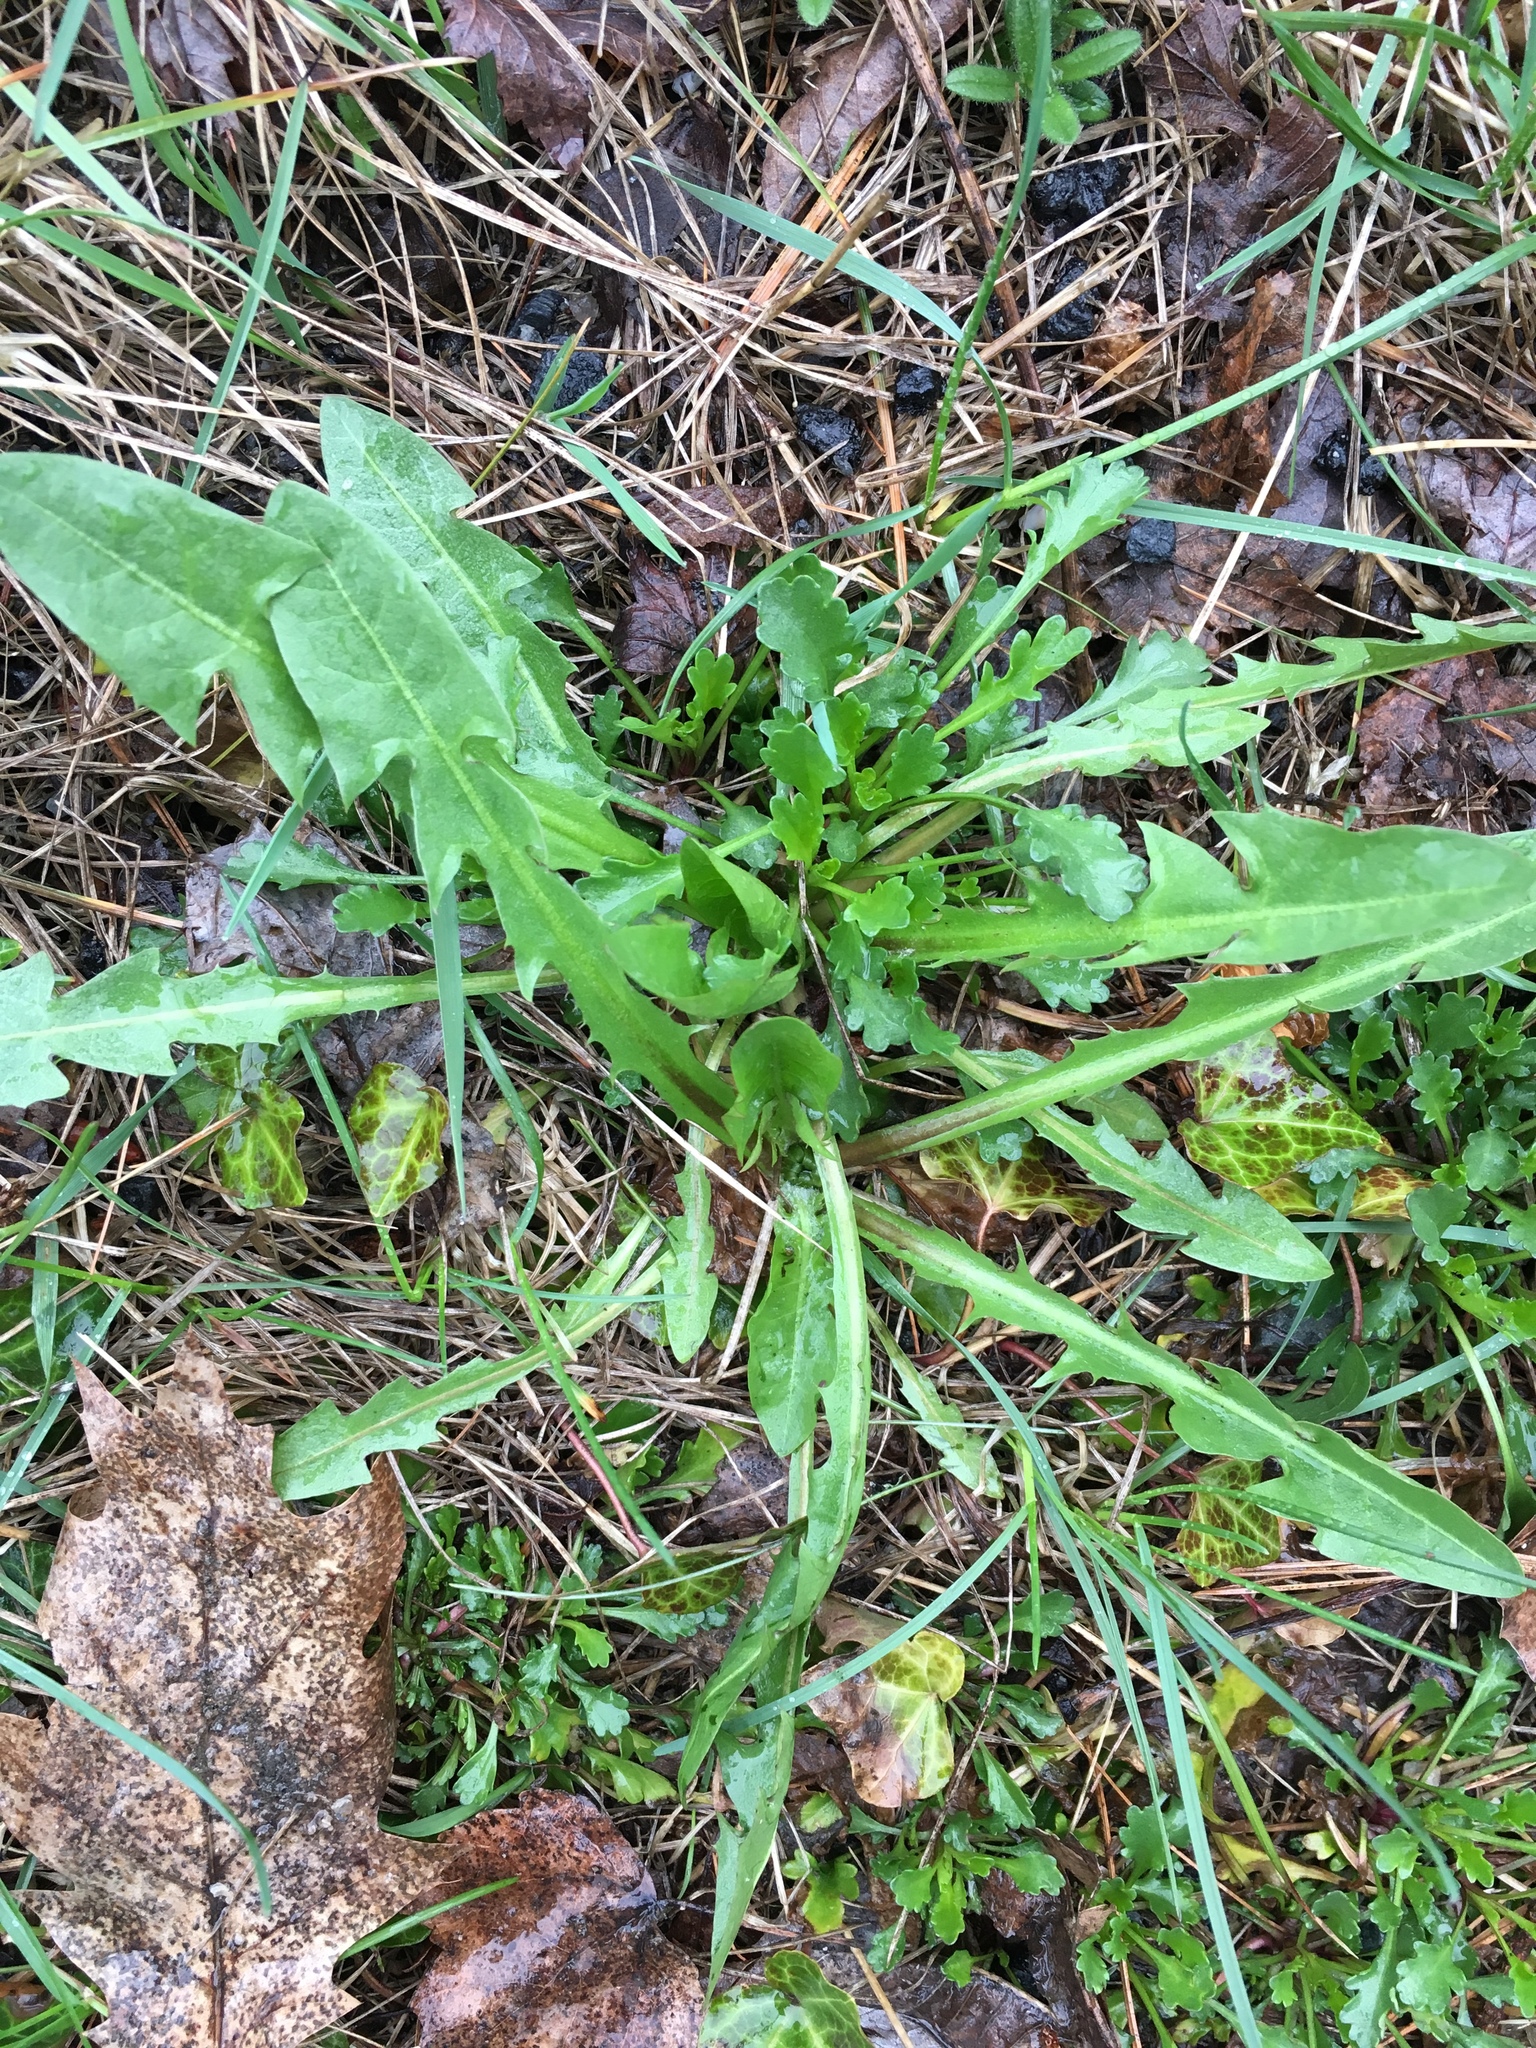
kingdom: Plantae
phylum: Tracheophyta
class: Magnoliopsida
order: Asterales
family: Asteraceae
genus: Taraxacum
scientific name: Taraxacum officinale
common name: Common dandelion
